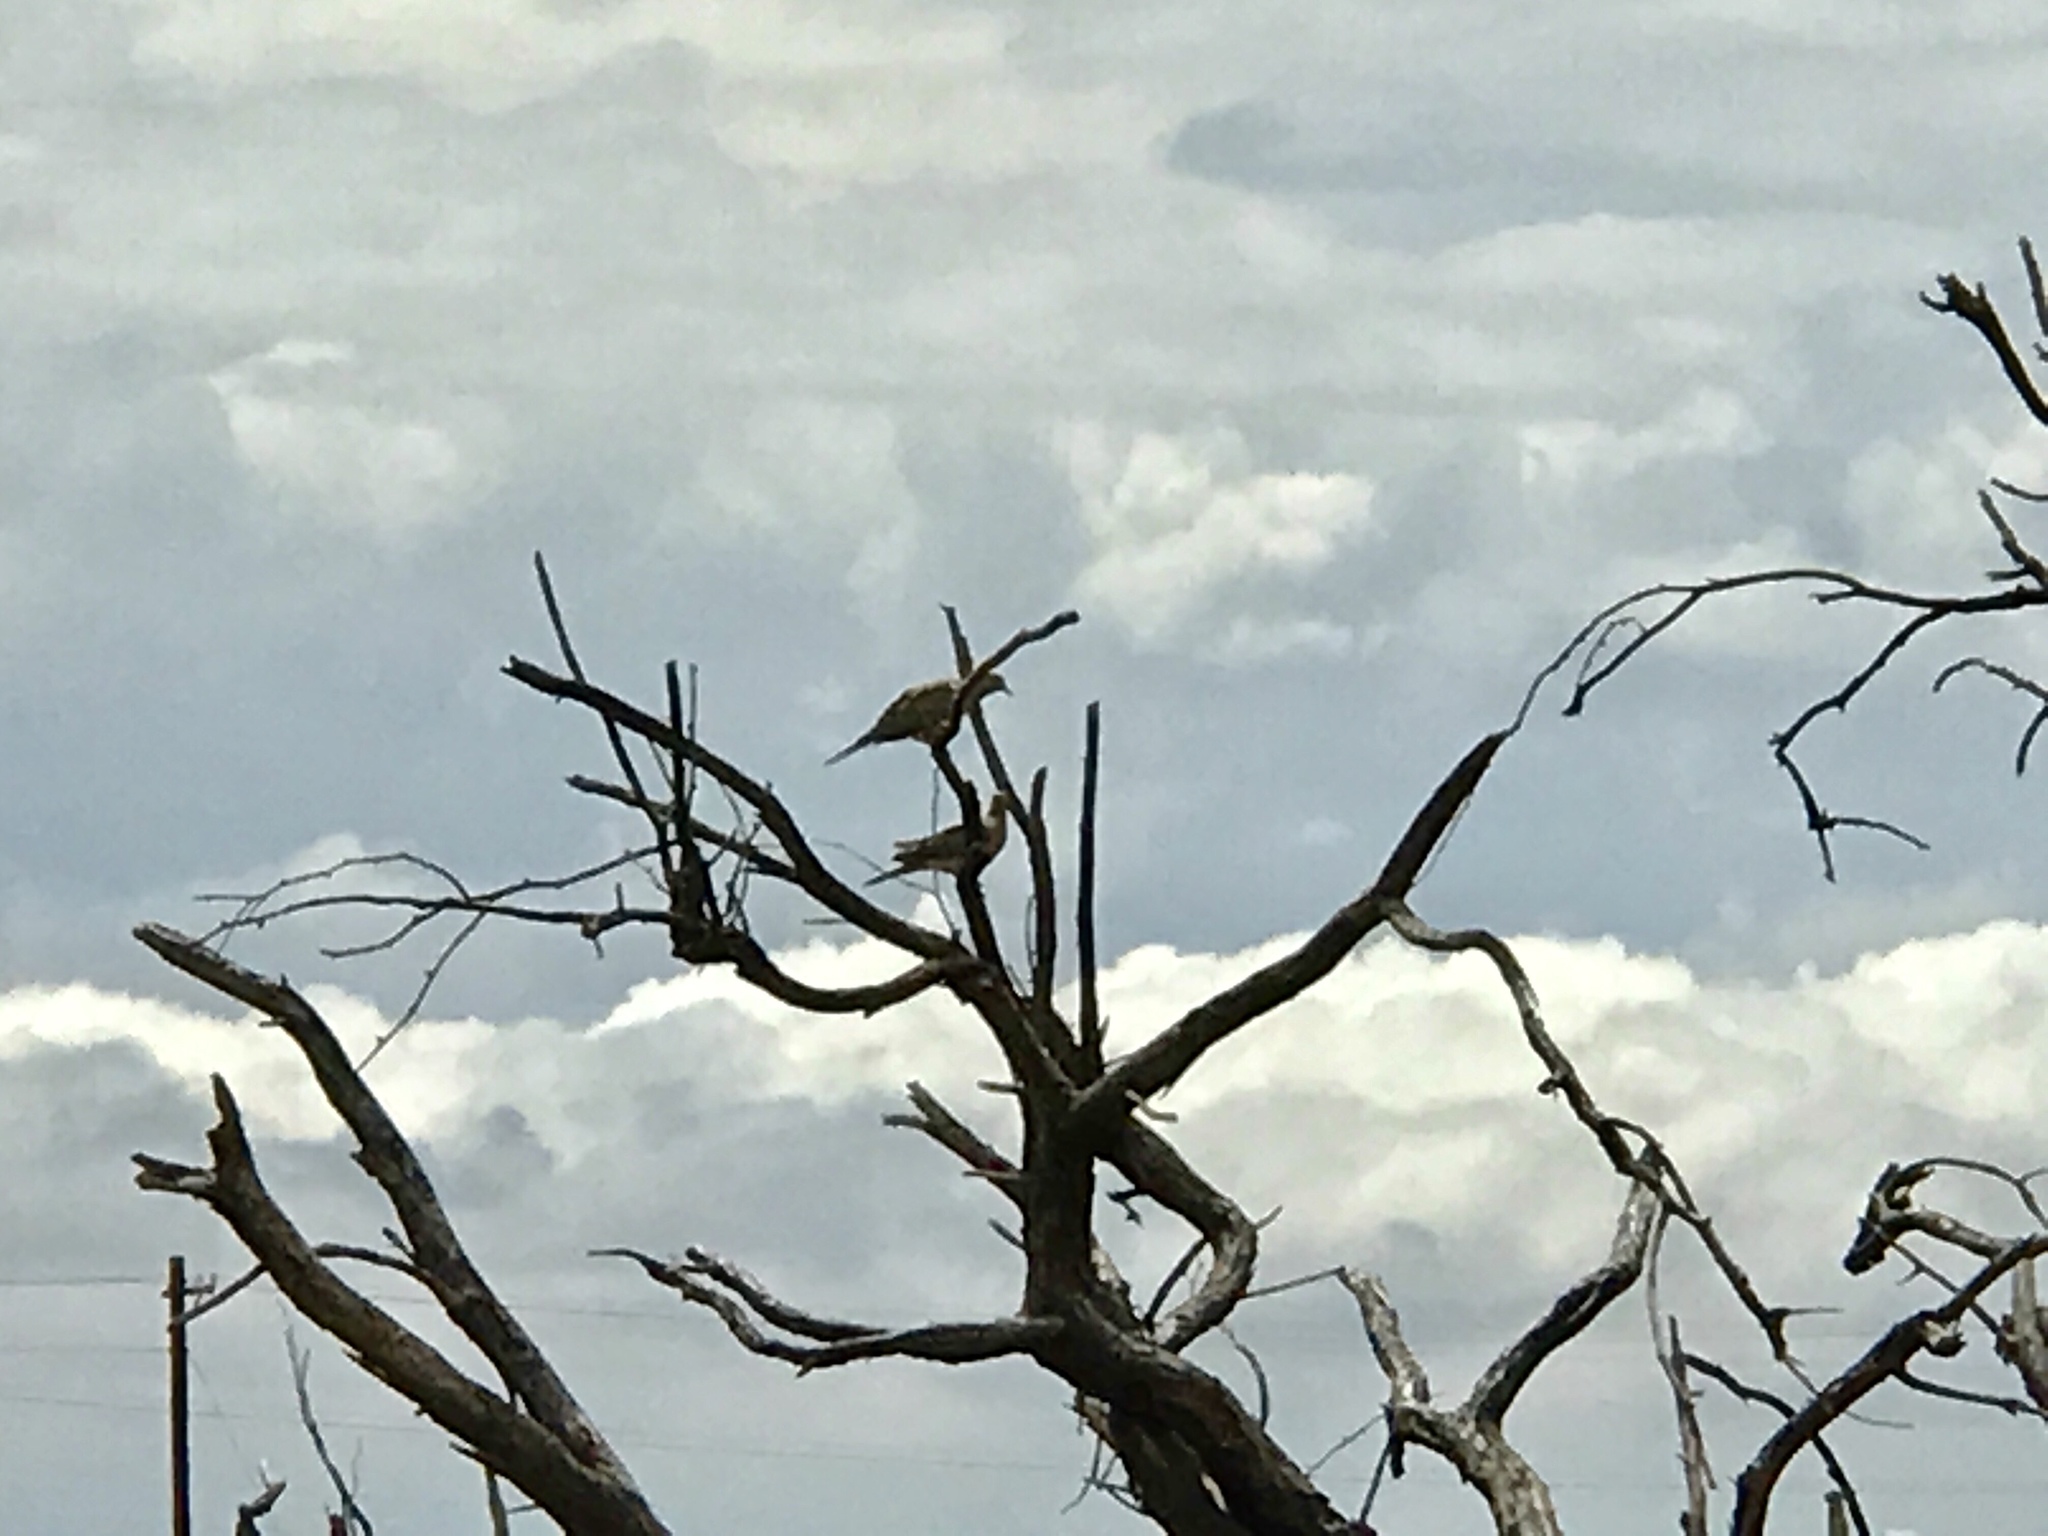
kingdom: Animalia
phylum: Chordata
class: Aves
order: Columbiformes
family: Columbidae
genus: Zenaida
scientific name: Zenaida macroura
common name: Mourning dove
